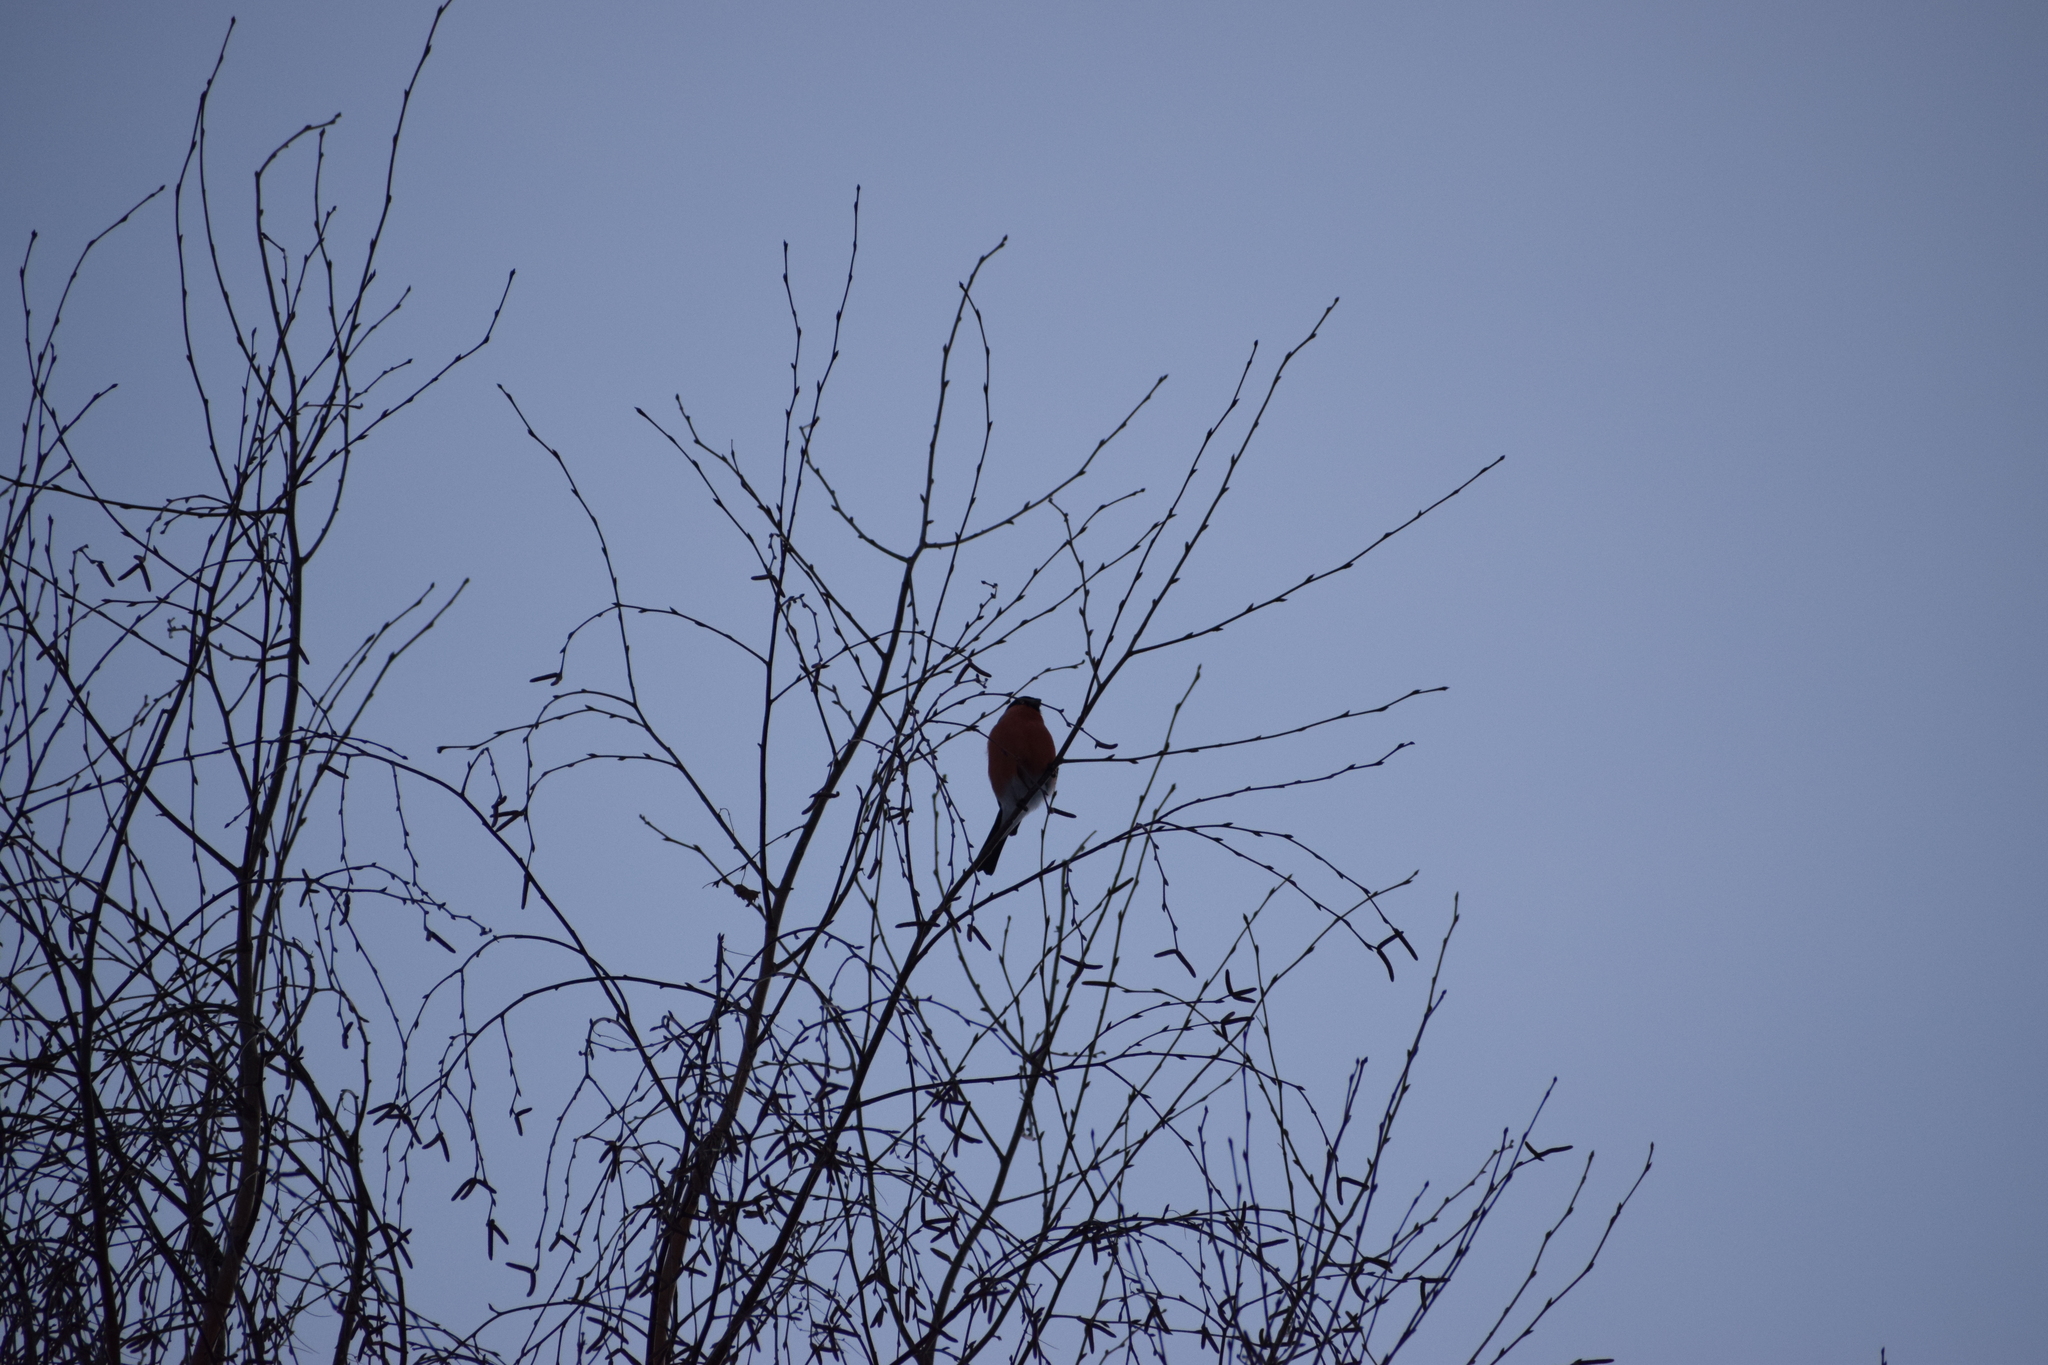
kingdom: Animalia
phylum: Chordata
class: Aves
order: Passeriformes
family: Fringillidae
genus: Pyrrhula
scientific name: Pyrrhula pyrrhula
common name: Eurasian bullfinch
